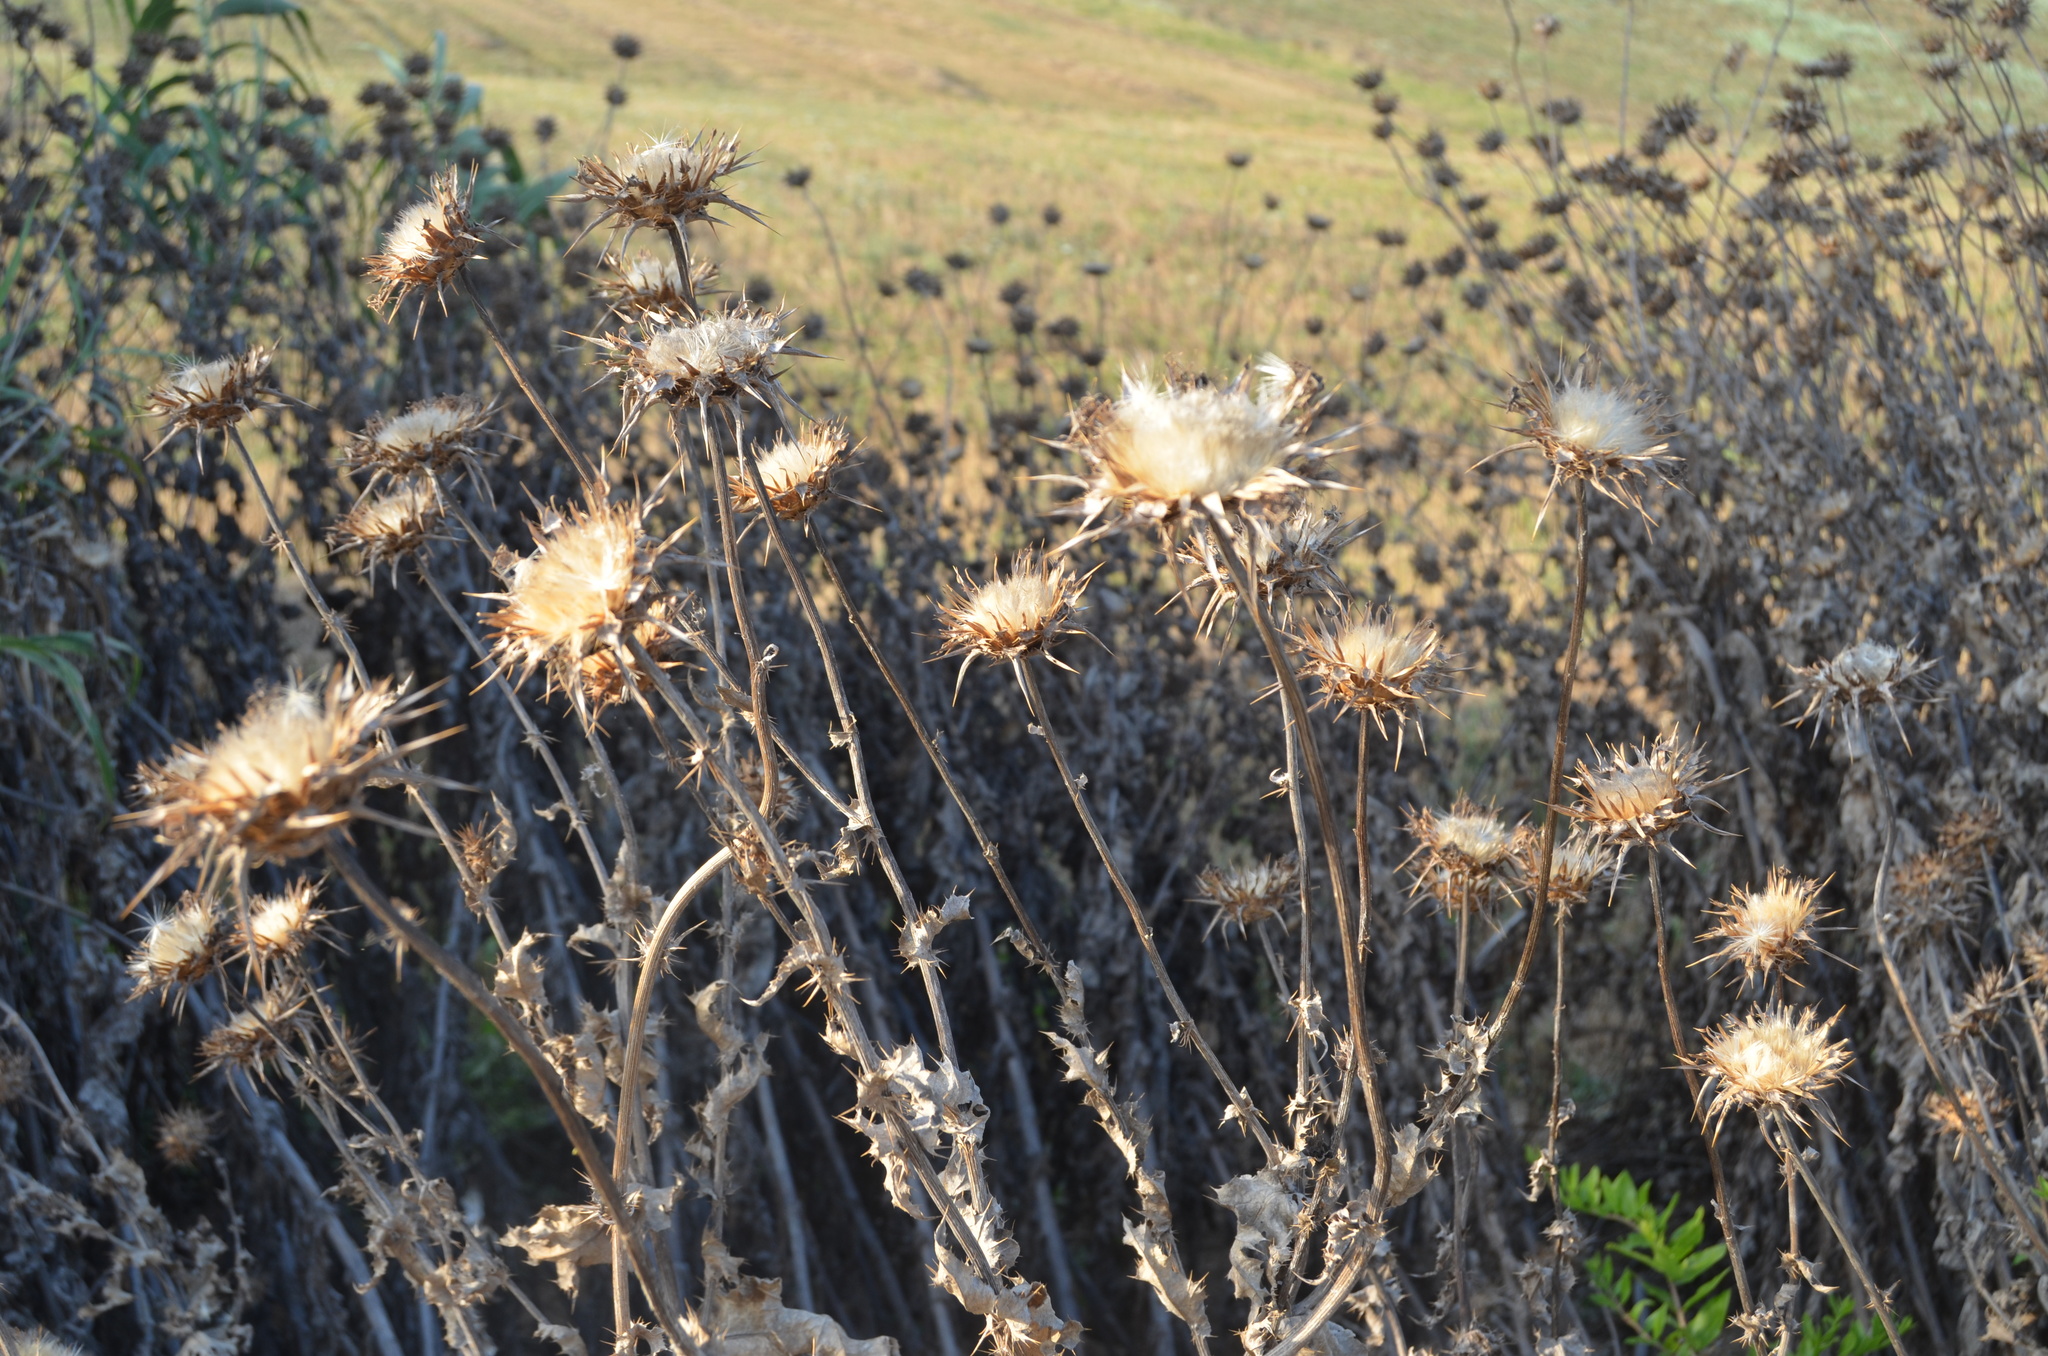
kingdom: Plantae
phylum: Tracheophyta
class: Magnoliopsida
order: Asterales
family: Asteraceae
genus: Silybum
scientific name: Silybum marianum
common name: Milk thistle
